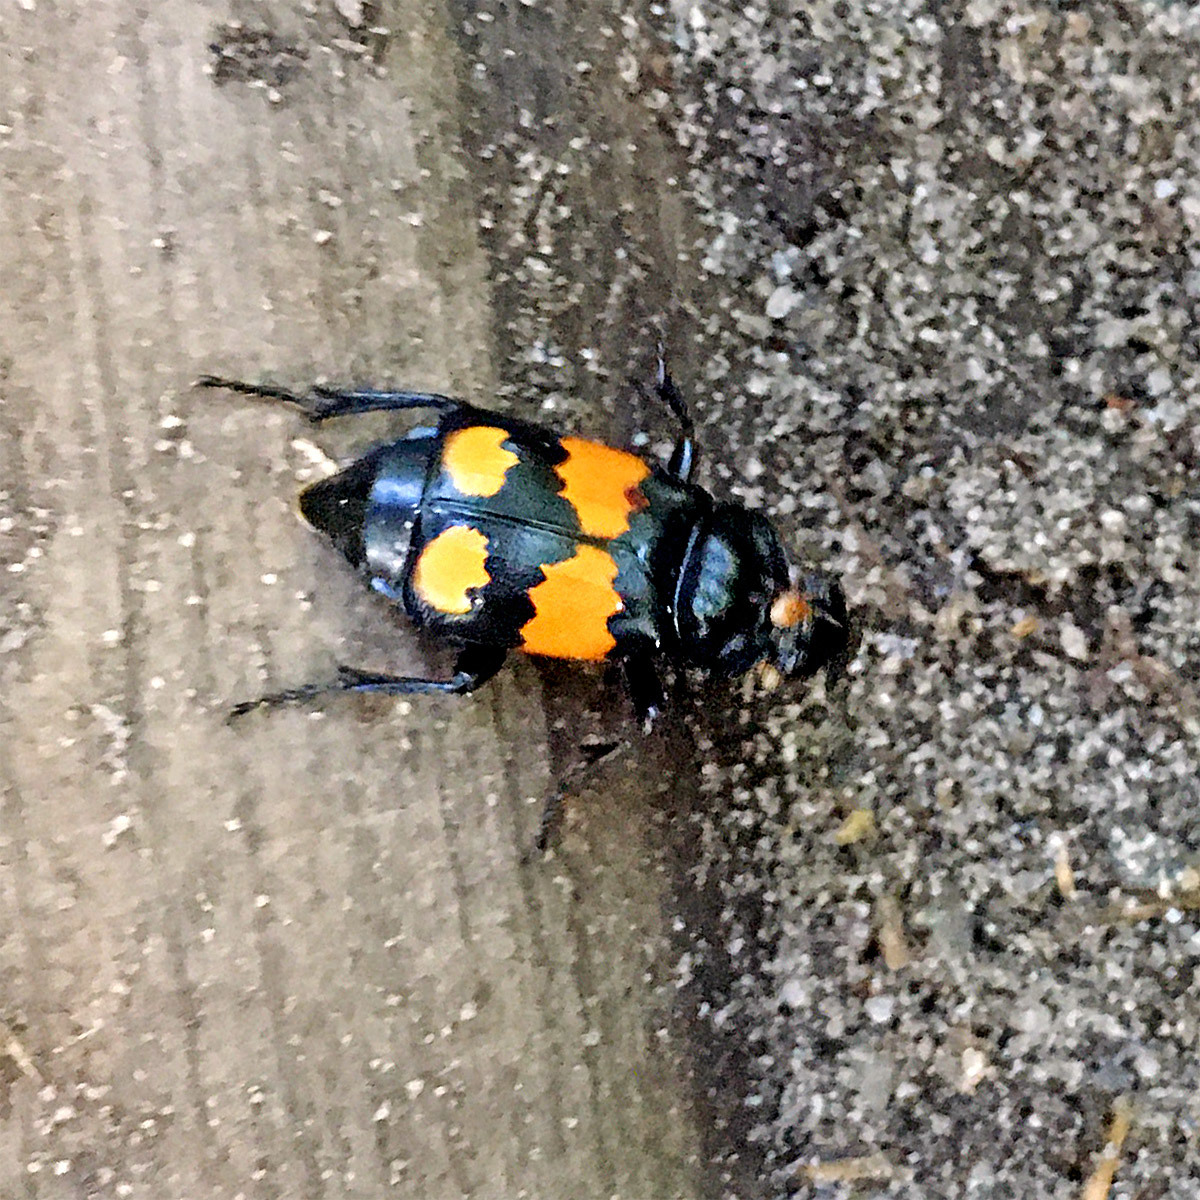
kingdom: Animalia
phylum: Arthropoda
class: Insecta
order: Coleoptera
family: Staphylinidae
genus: Nicrophorus
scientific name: Nicrophorus vespilloides
